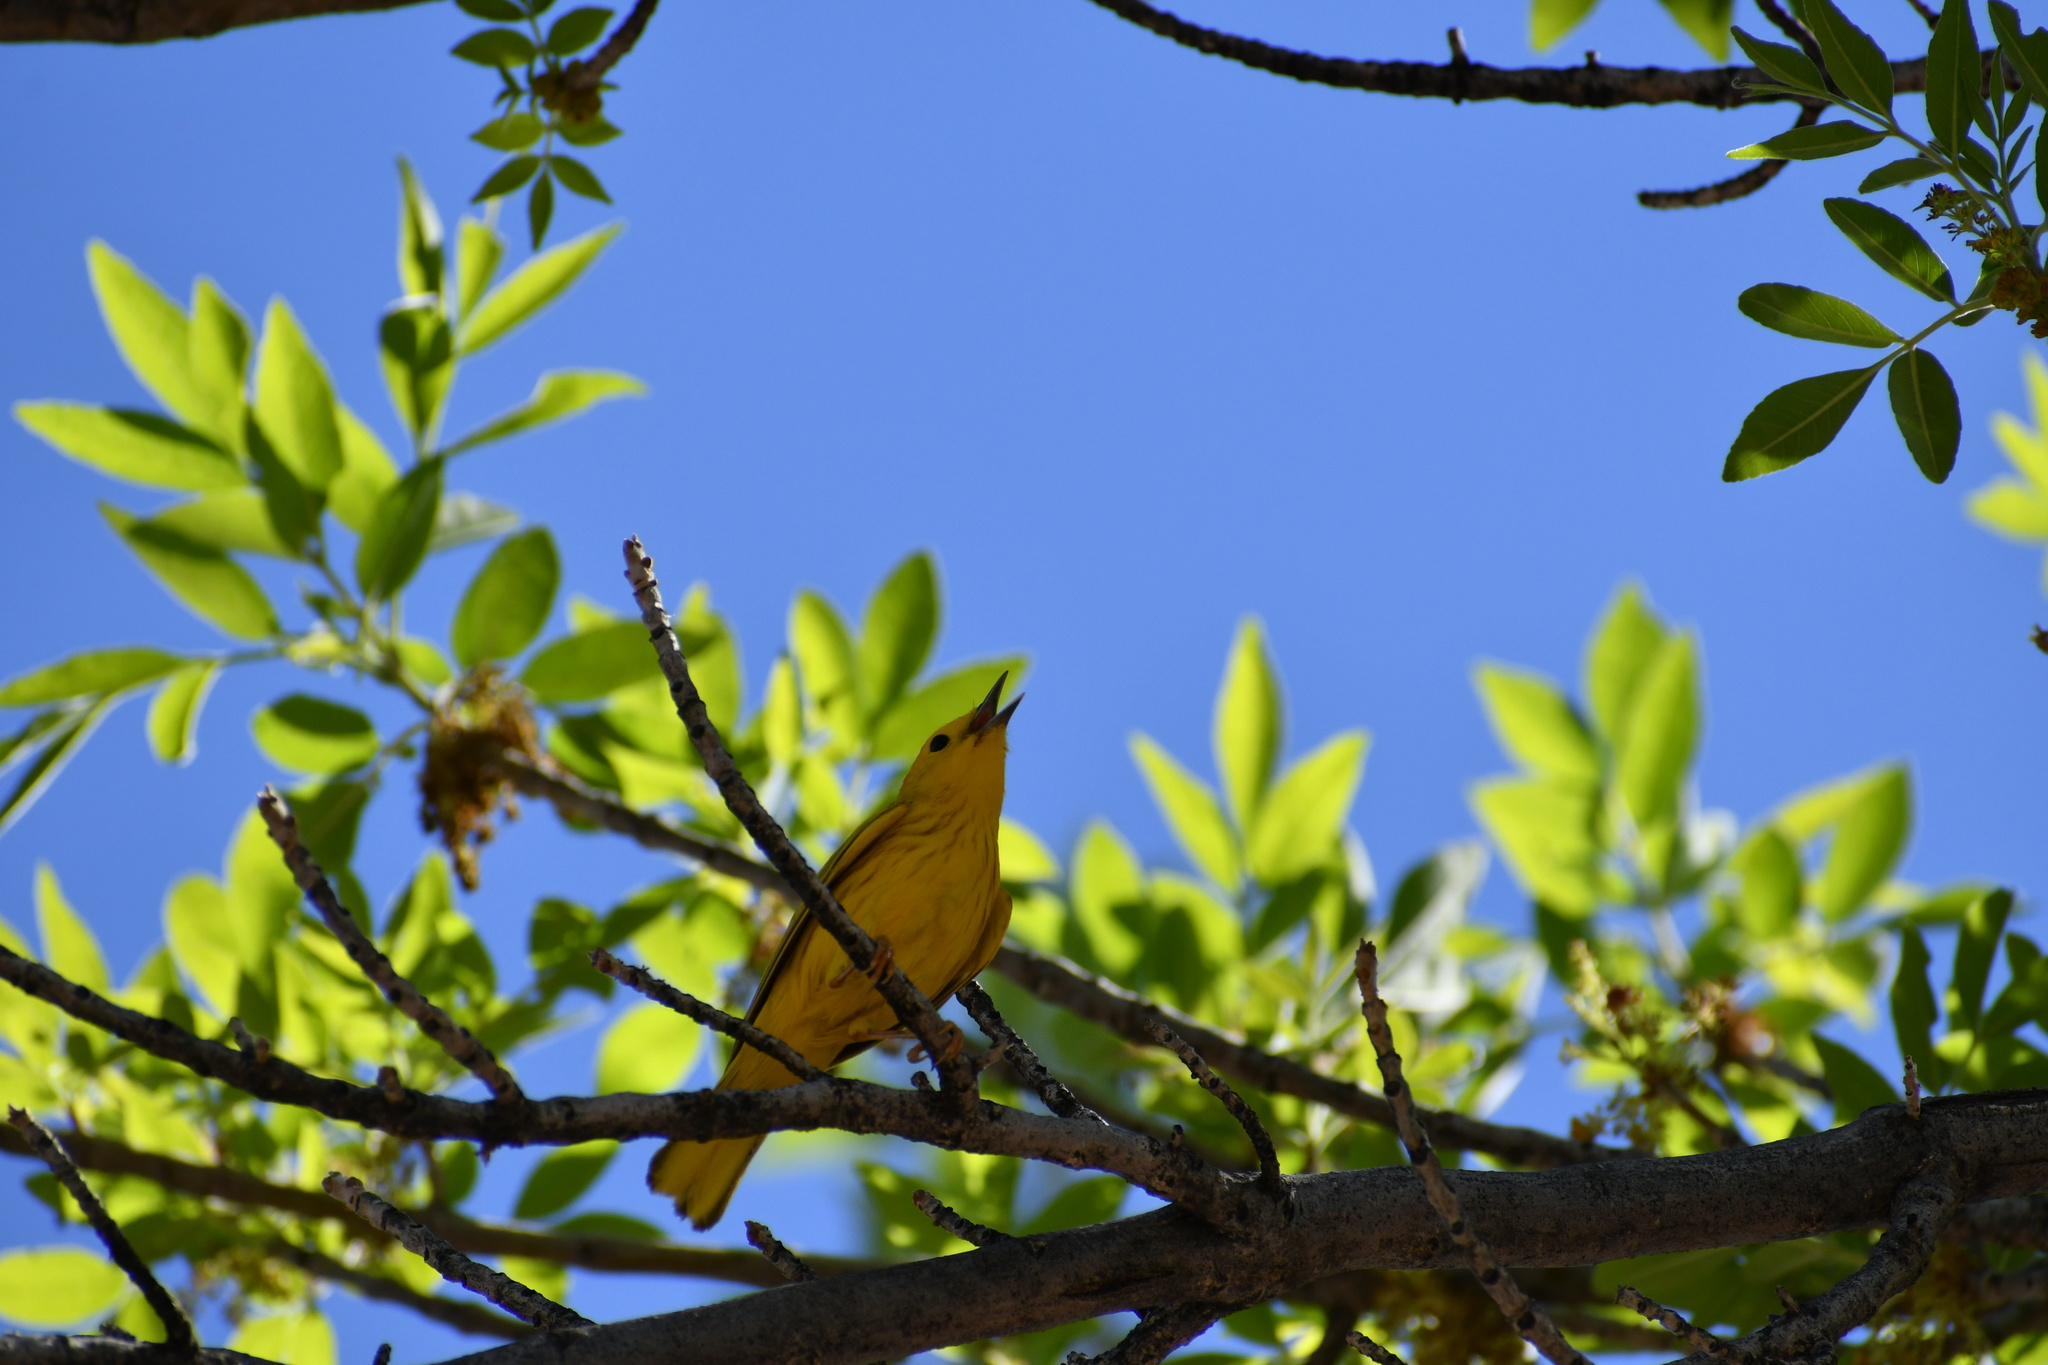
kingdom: Animalia
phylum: Chordata
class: Aves
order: Passeriformes
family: Parulidae
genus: Setophaga
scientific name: Setophaga petechia
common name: Yellow warbler
